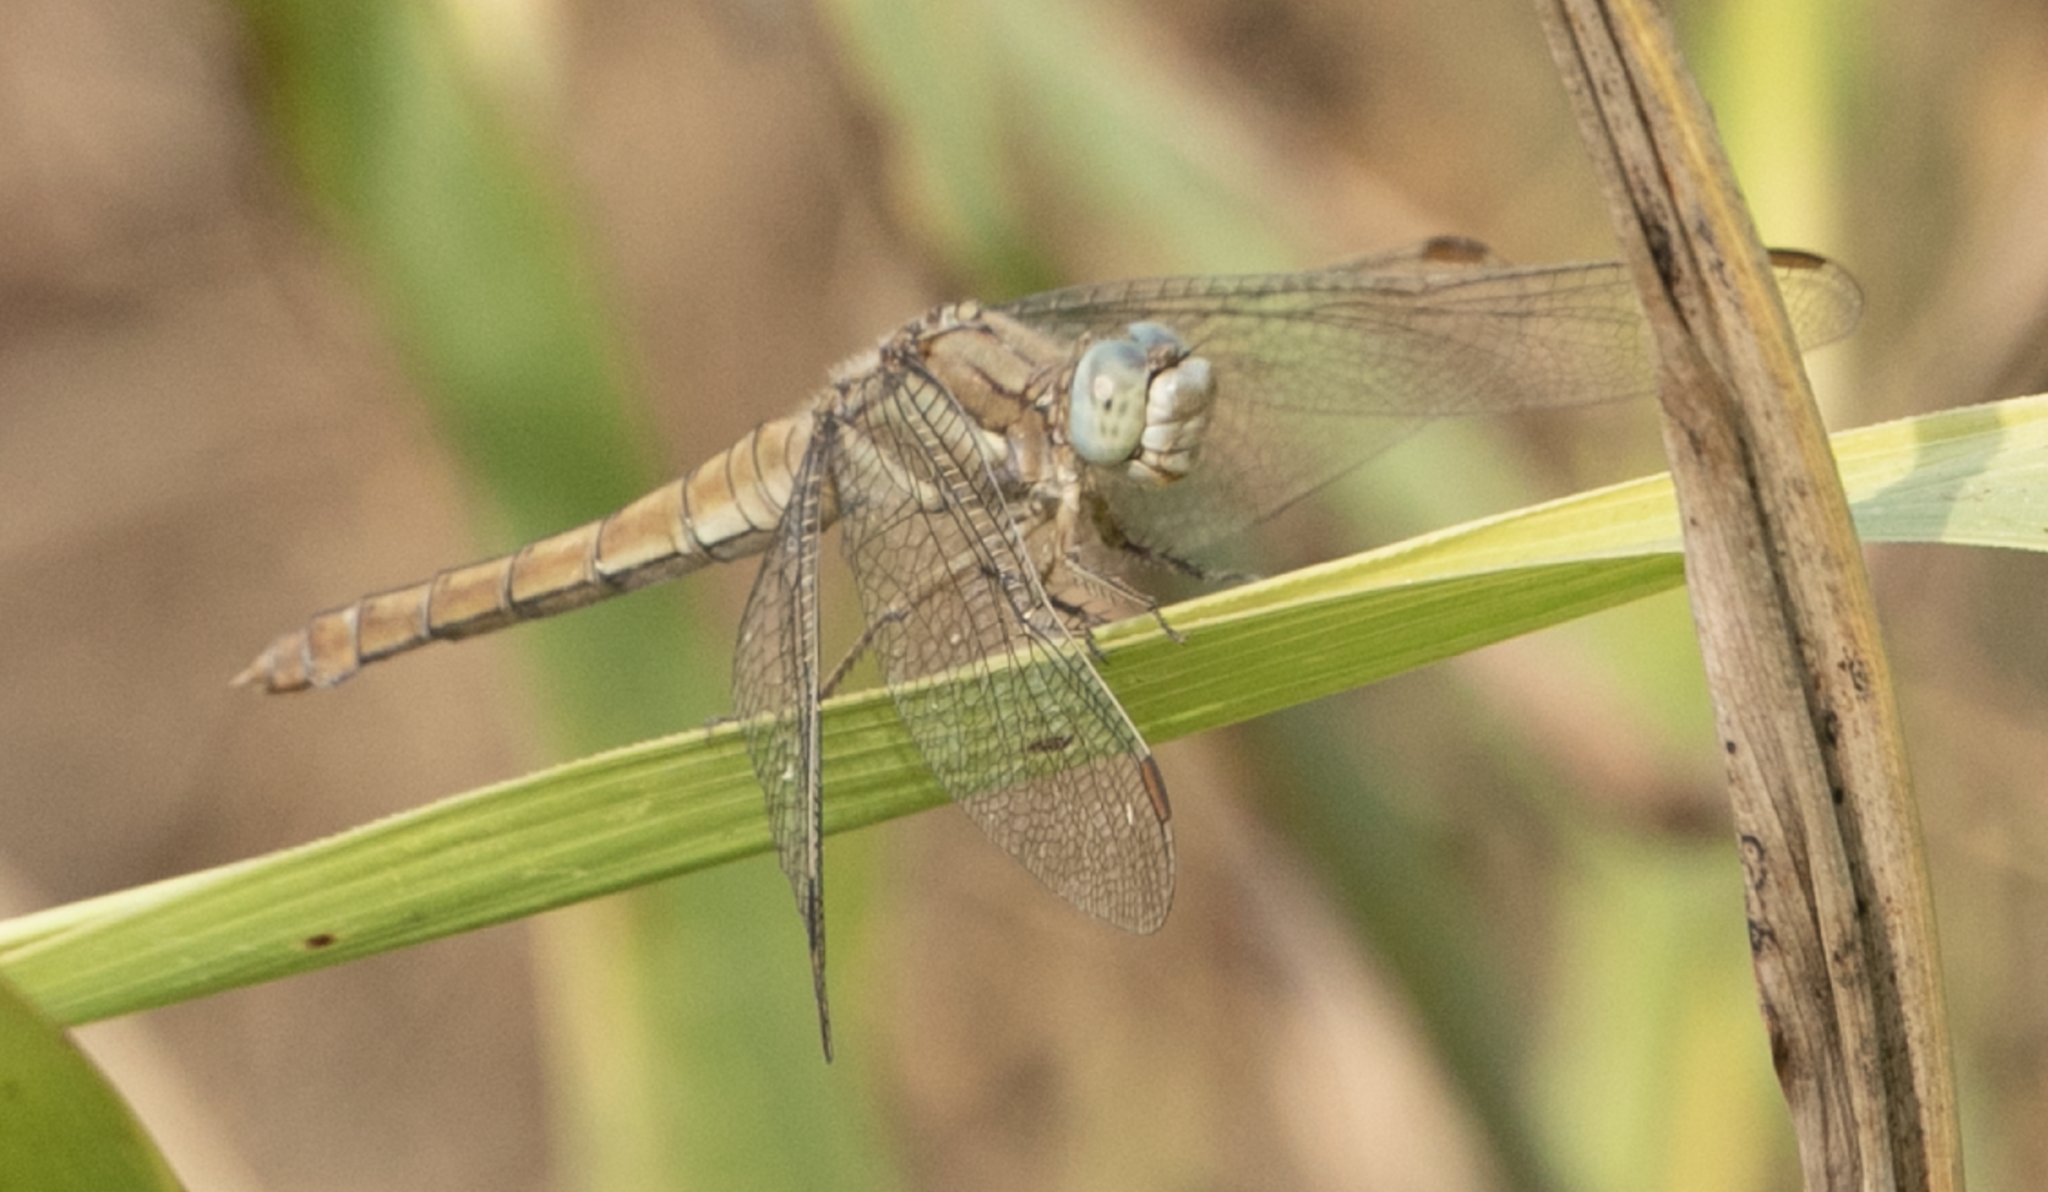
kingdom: Animalia
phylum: Arthropoda
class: Insecta
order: Odonata
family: Libellulidae
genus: Orthetrum
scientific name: Orthetrum brunneum
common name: Southern skimmer
